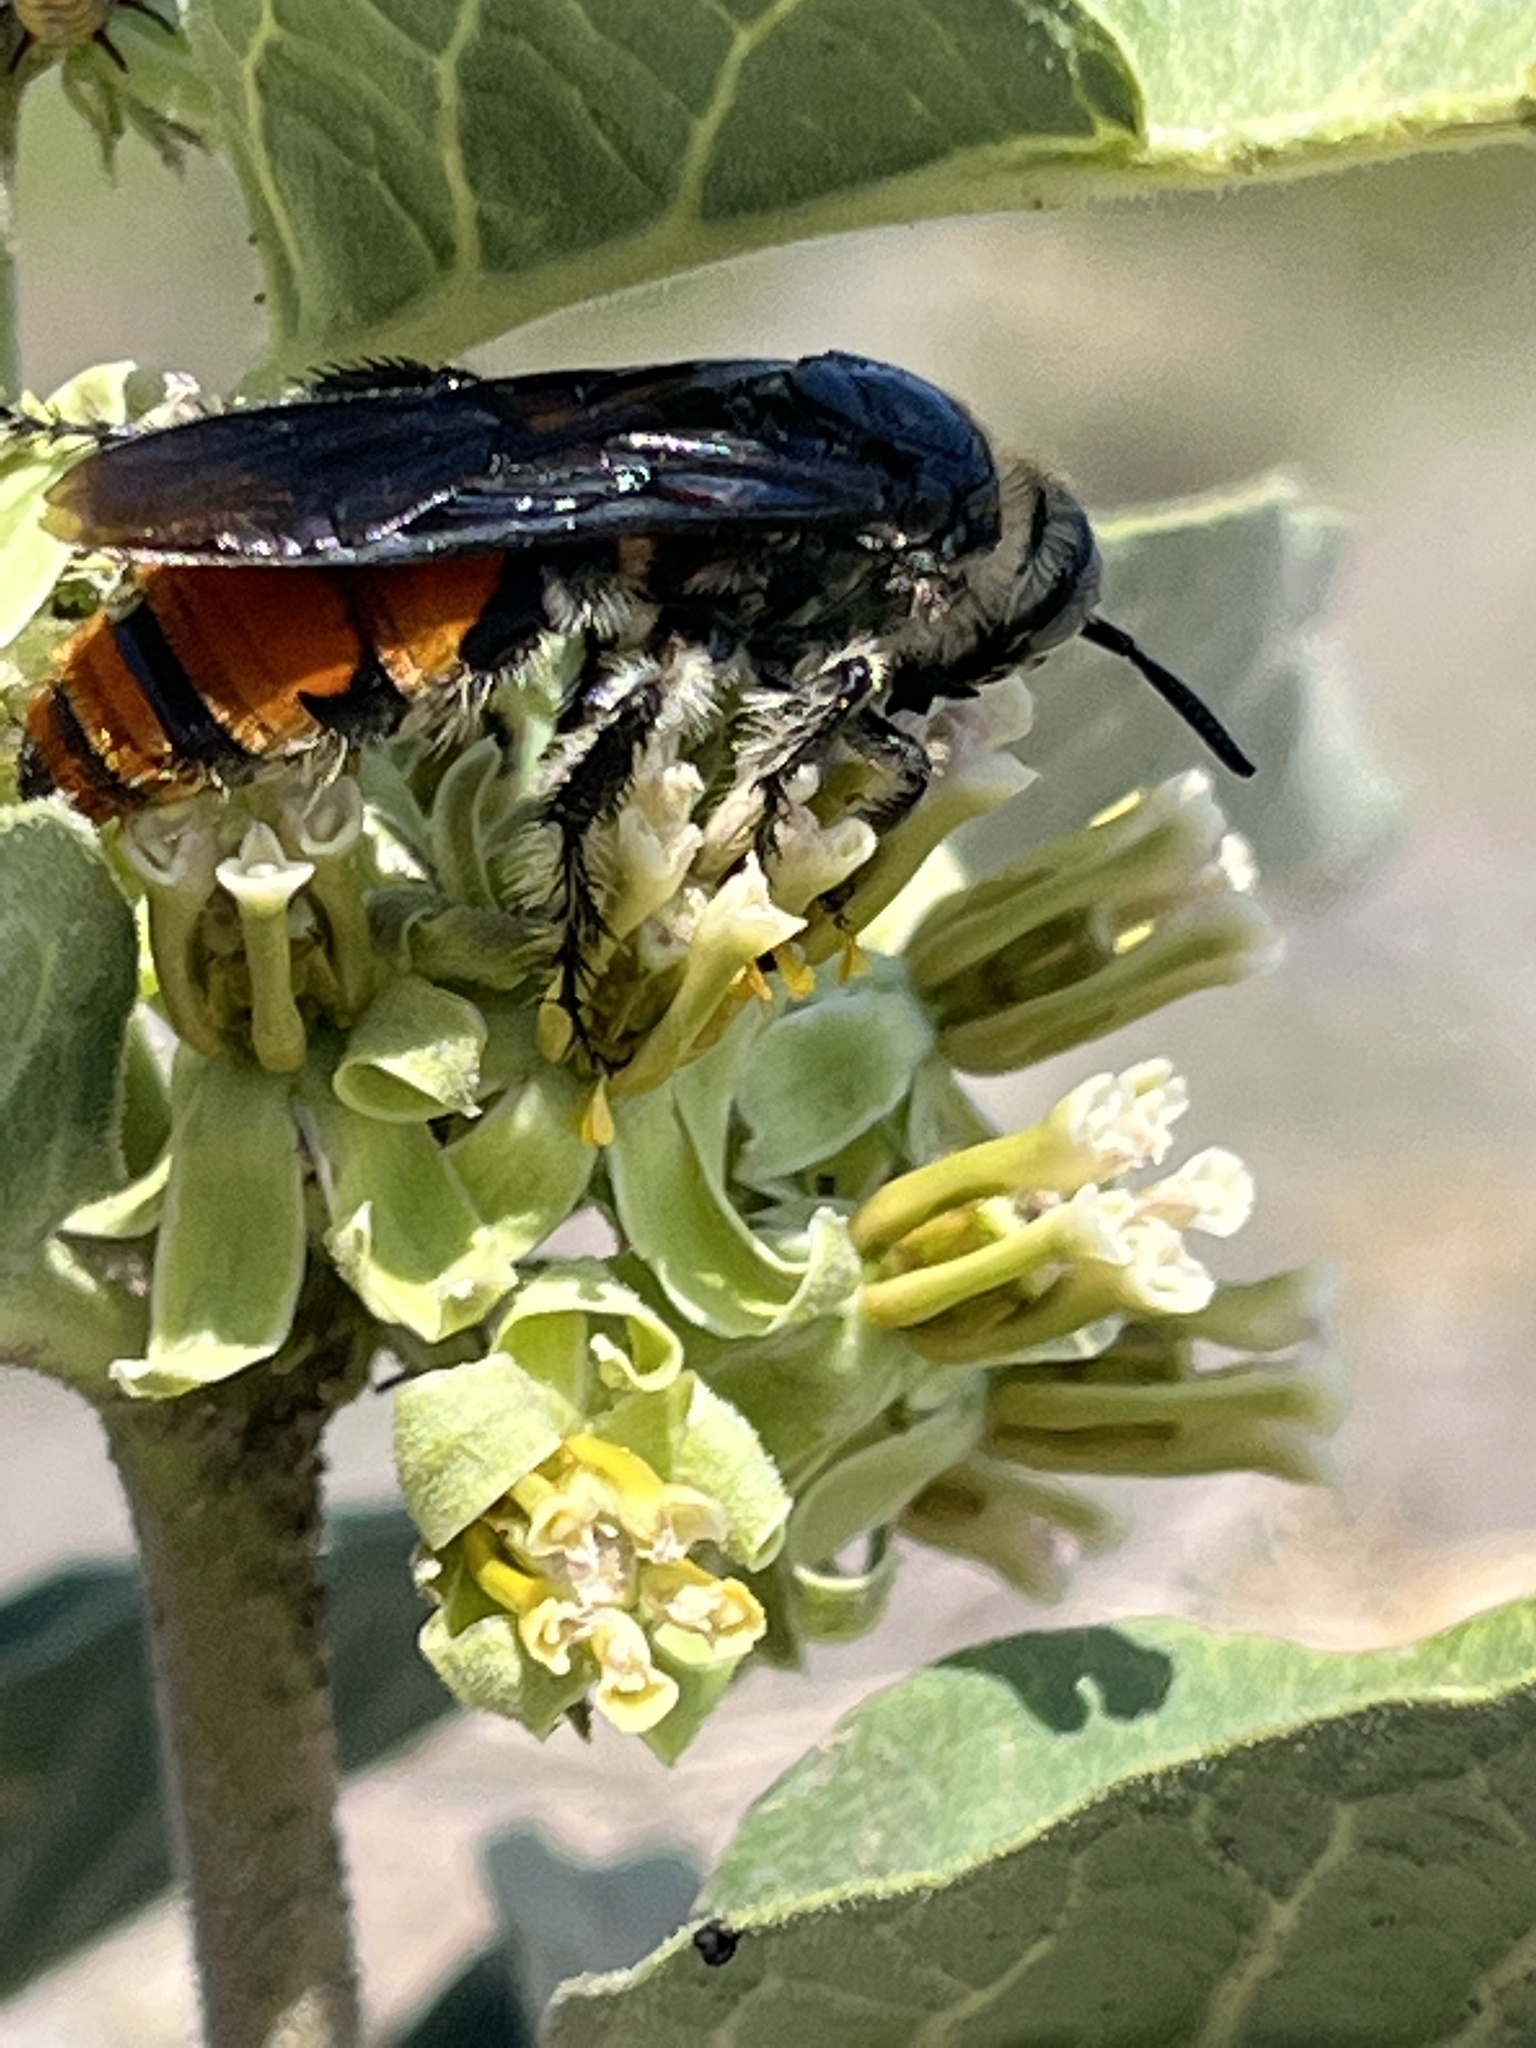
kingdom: Animalia
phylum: Arthropoda
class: Insecta
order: Hymenoptera
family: Scoliidae
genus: Dielis
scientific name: Dielis tolteca
